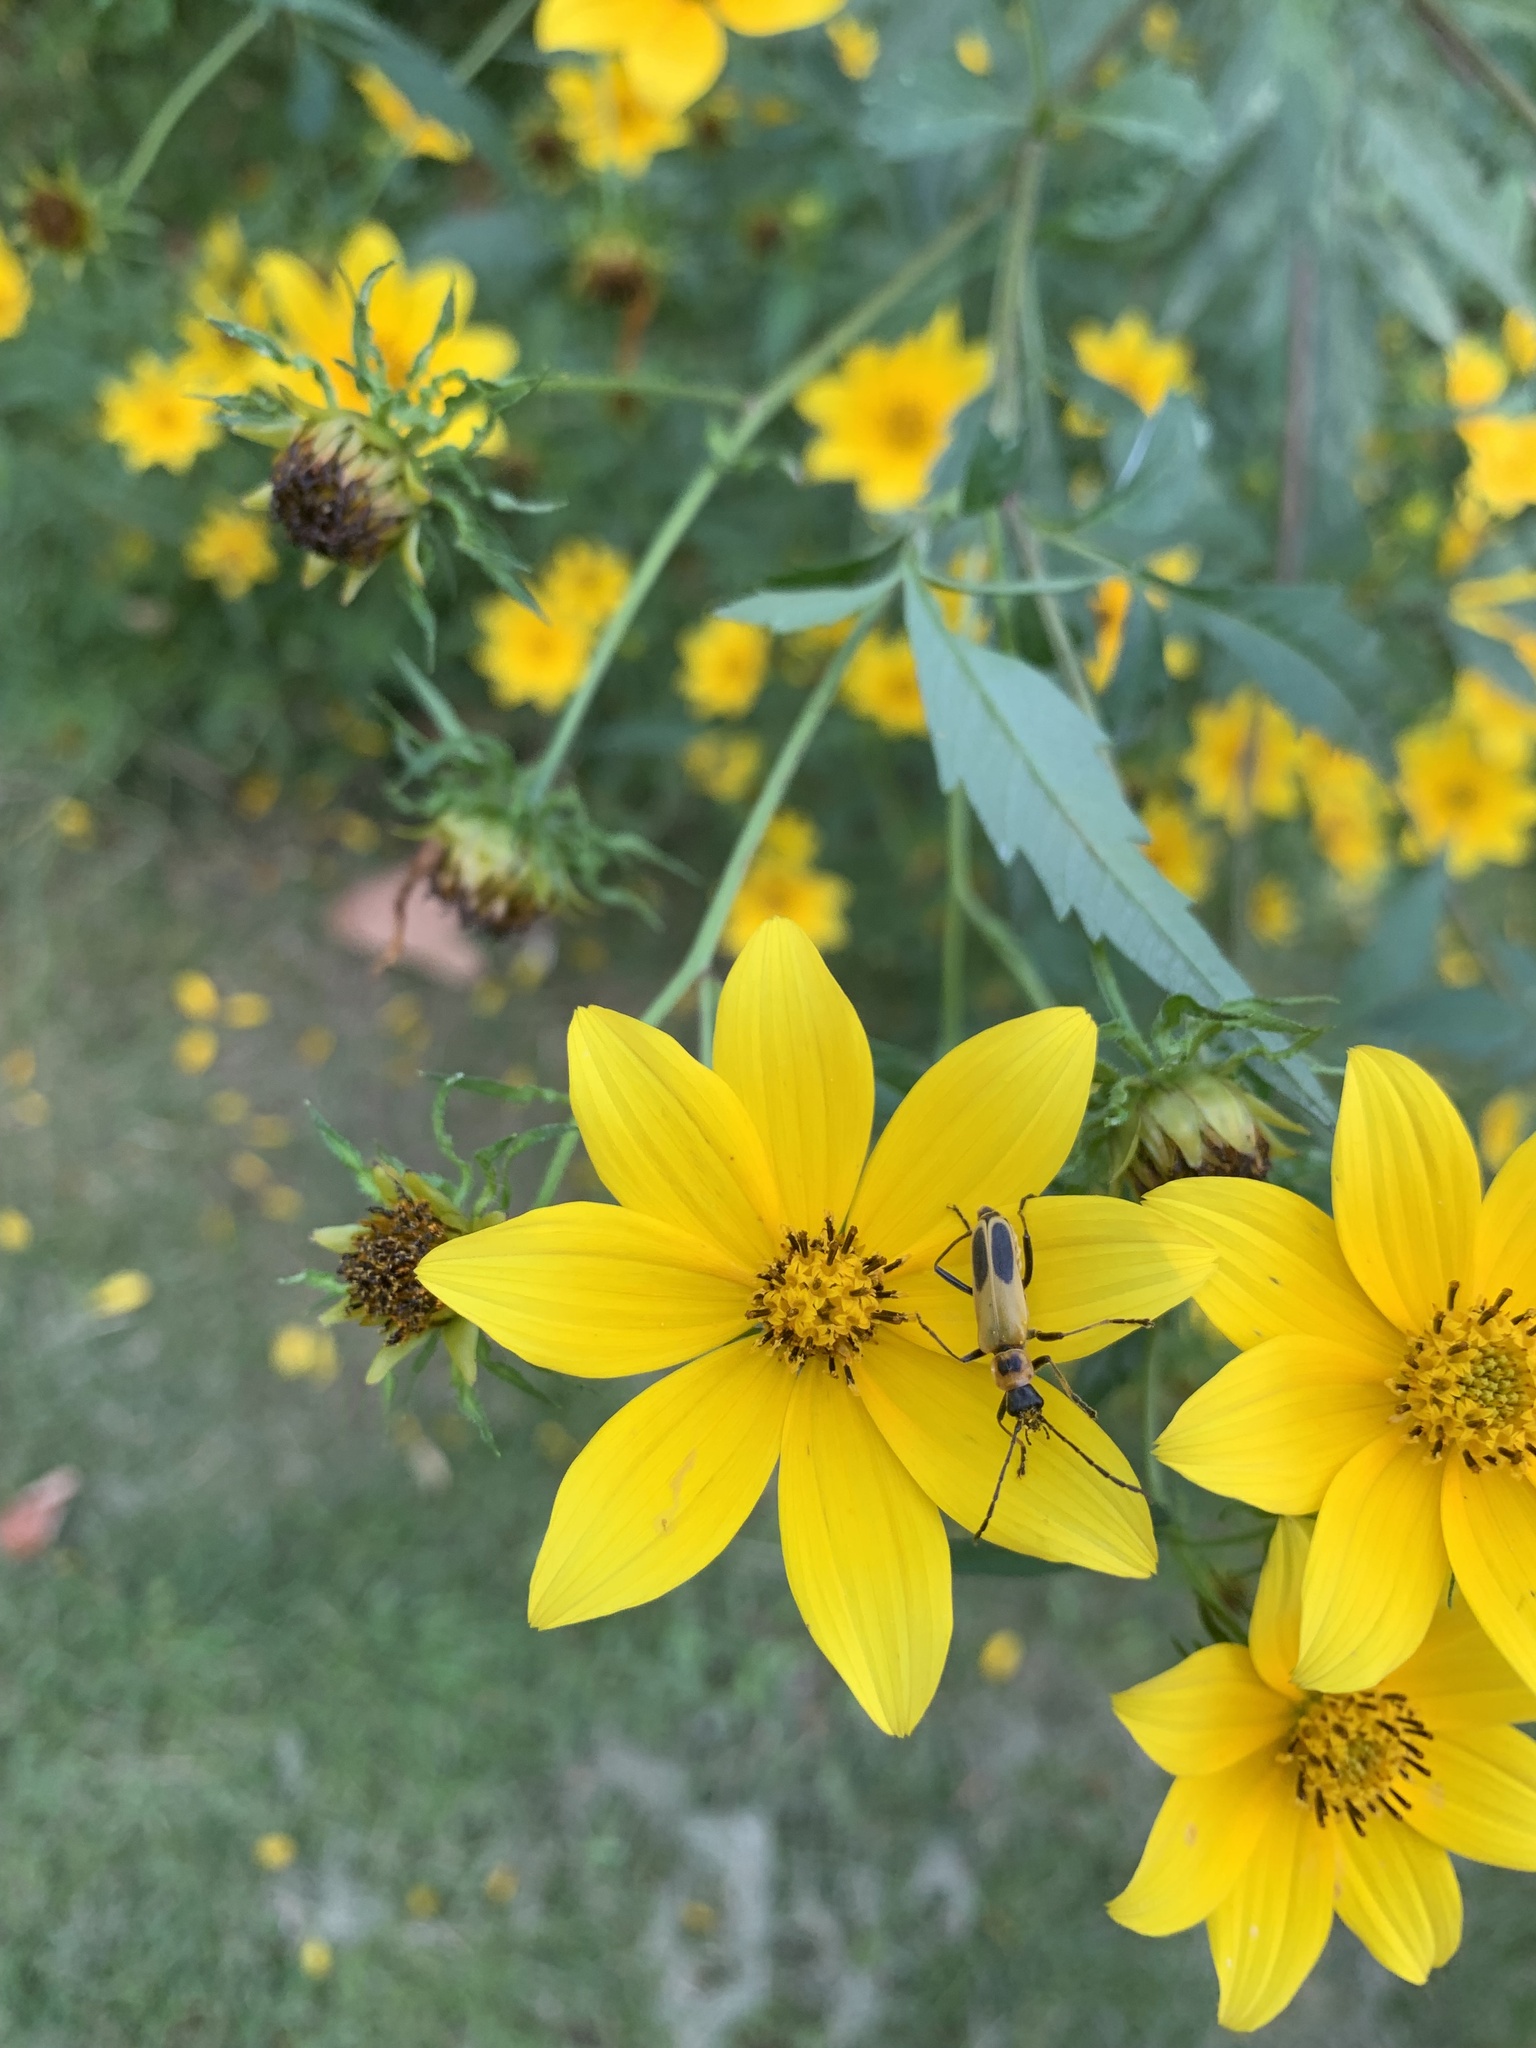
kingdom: Animalia
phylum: Arthropoda
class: Insecta
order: Coleoptera
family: Cantharidae
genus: Chauliognathus
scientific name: Chauliognathus pensylvanicus
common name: Goldenrod soldier beetle
